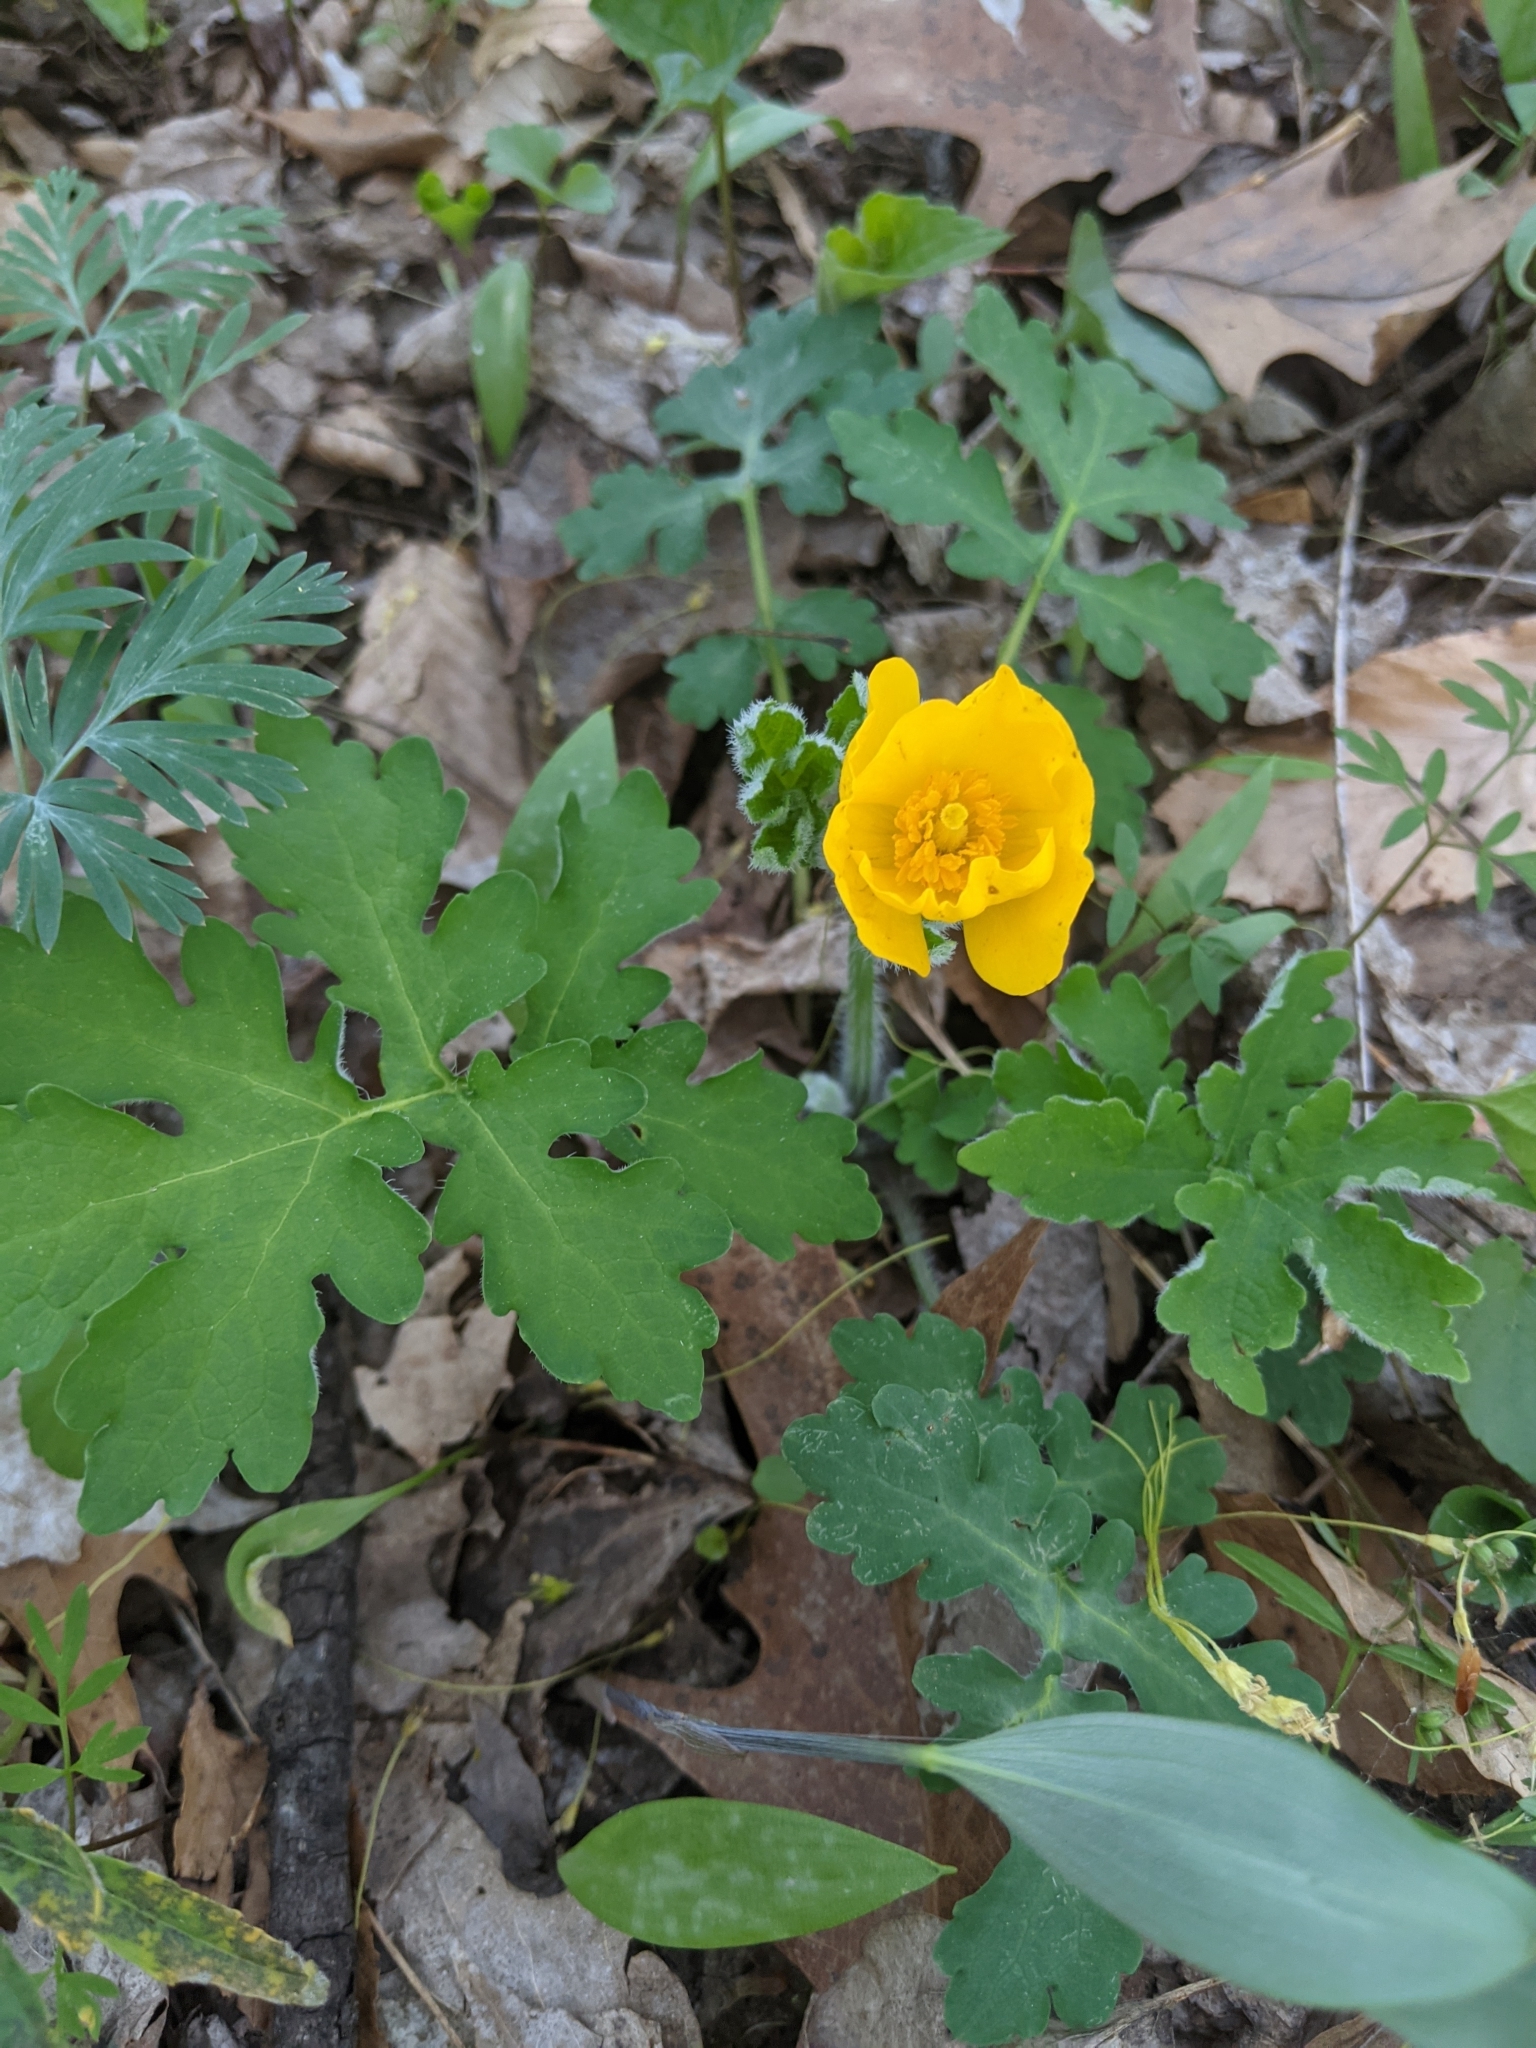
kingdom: Plantae
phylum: Tracheophyta
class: Magnoliopsida
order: Ranunculales
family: Papaveraceae
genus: Stylophorum
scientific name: Stylophorum diphyllum
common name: Celandine poppy
